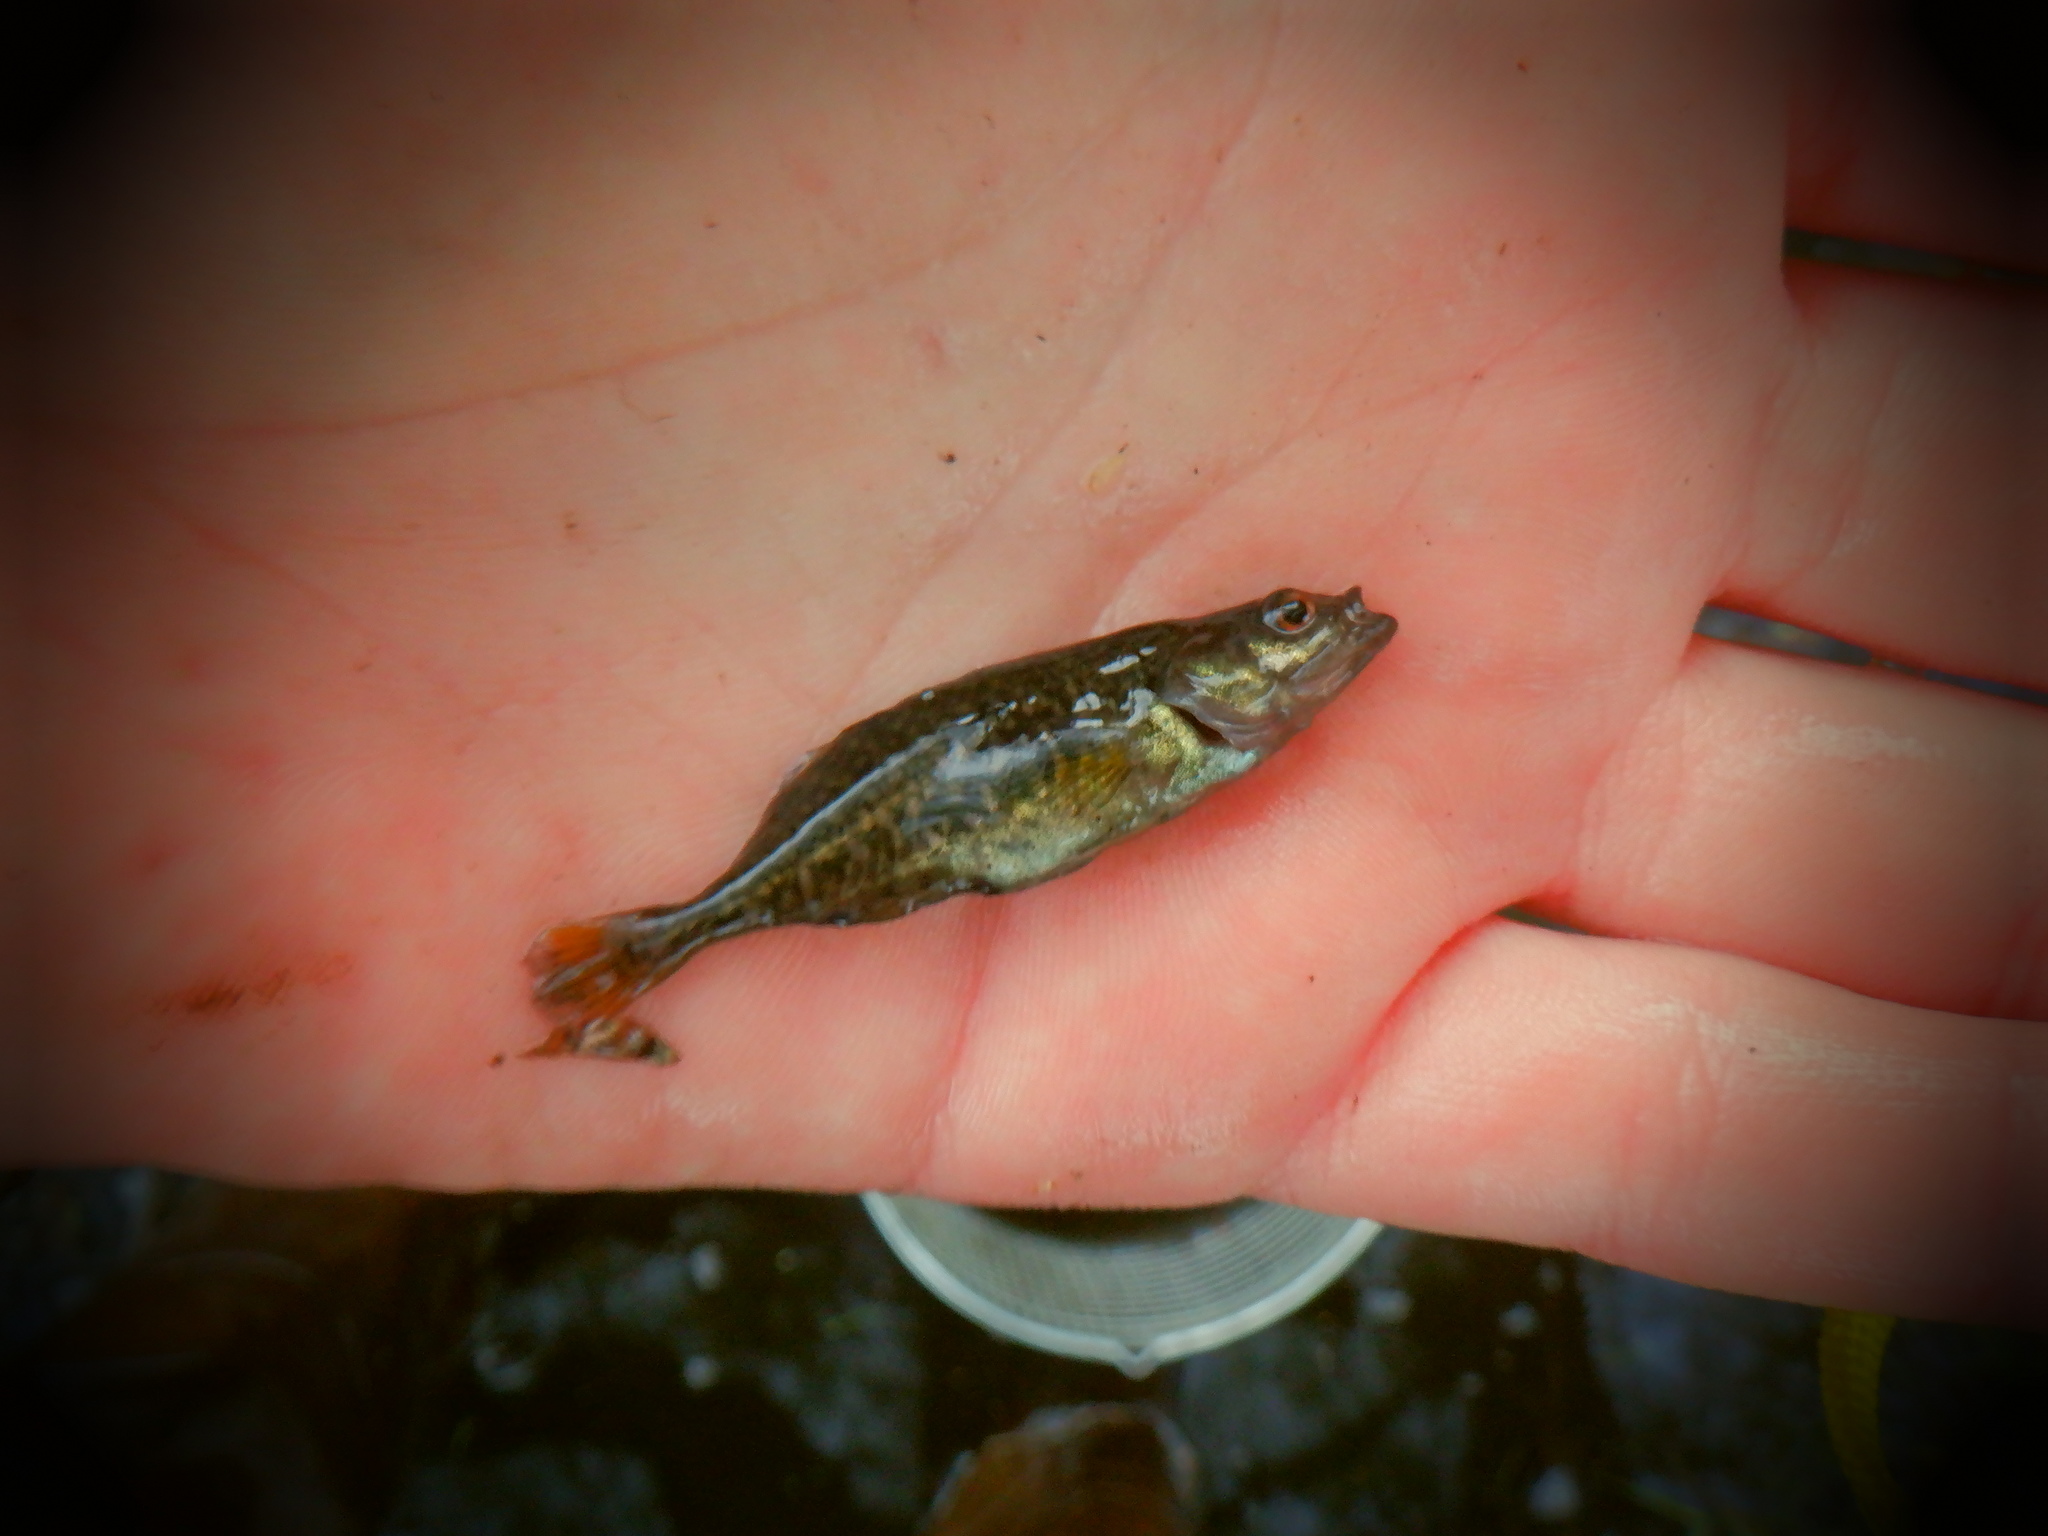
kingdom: Animalia
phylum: Chordata
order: Gasterosteiformes
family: Gasterosteidae
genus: Culaea
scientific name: Culaea inconstans
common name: Brook stickleback
